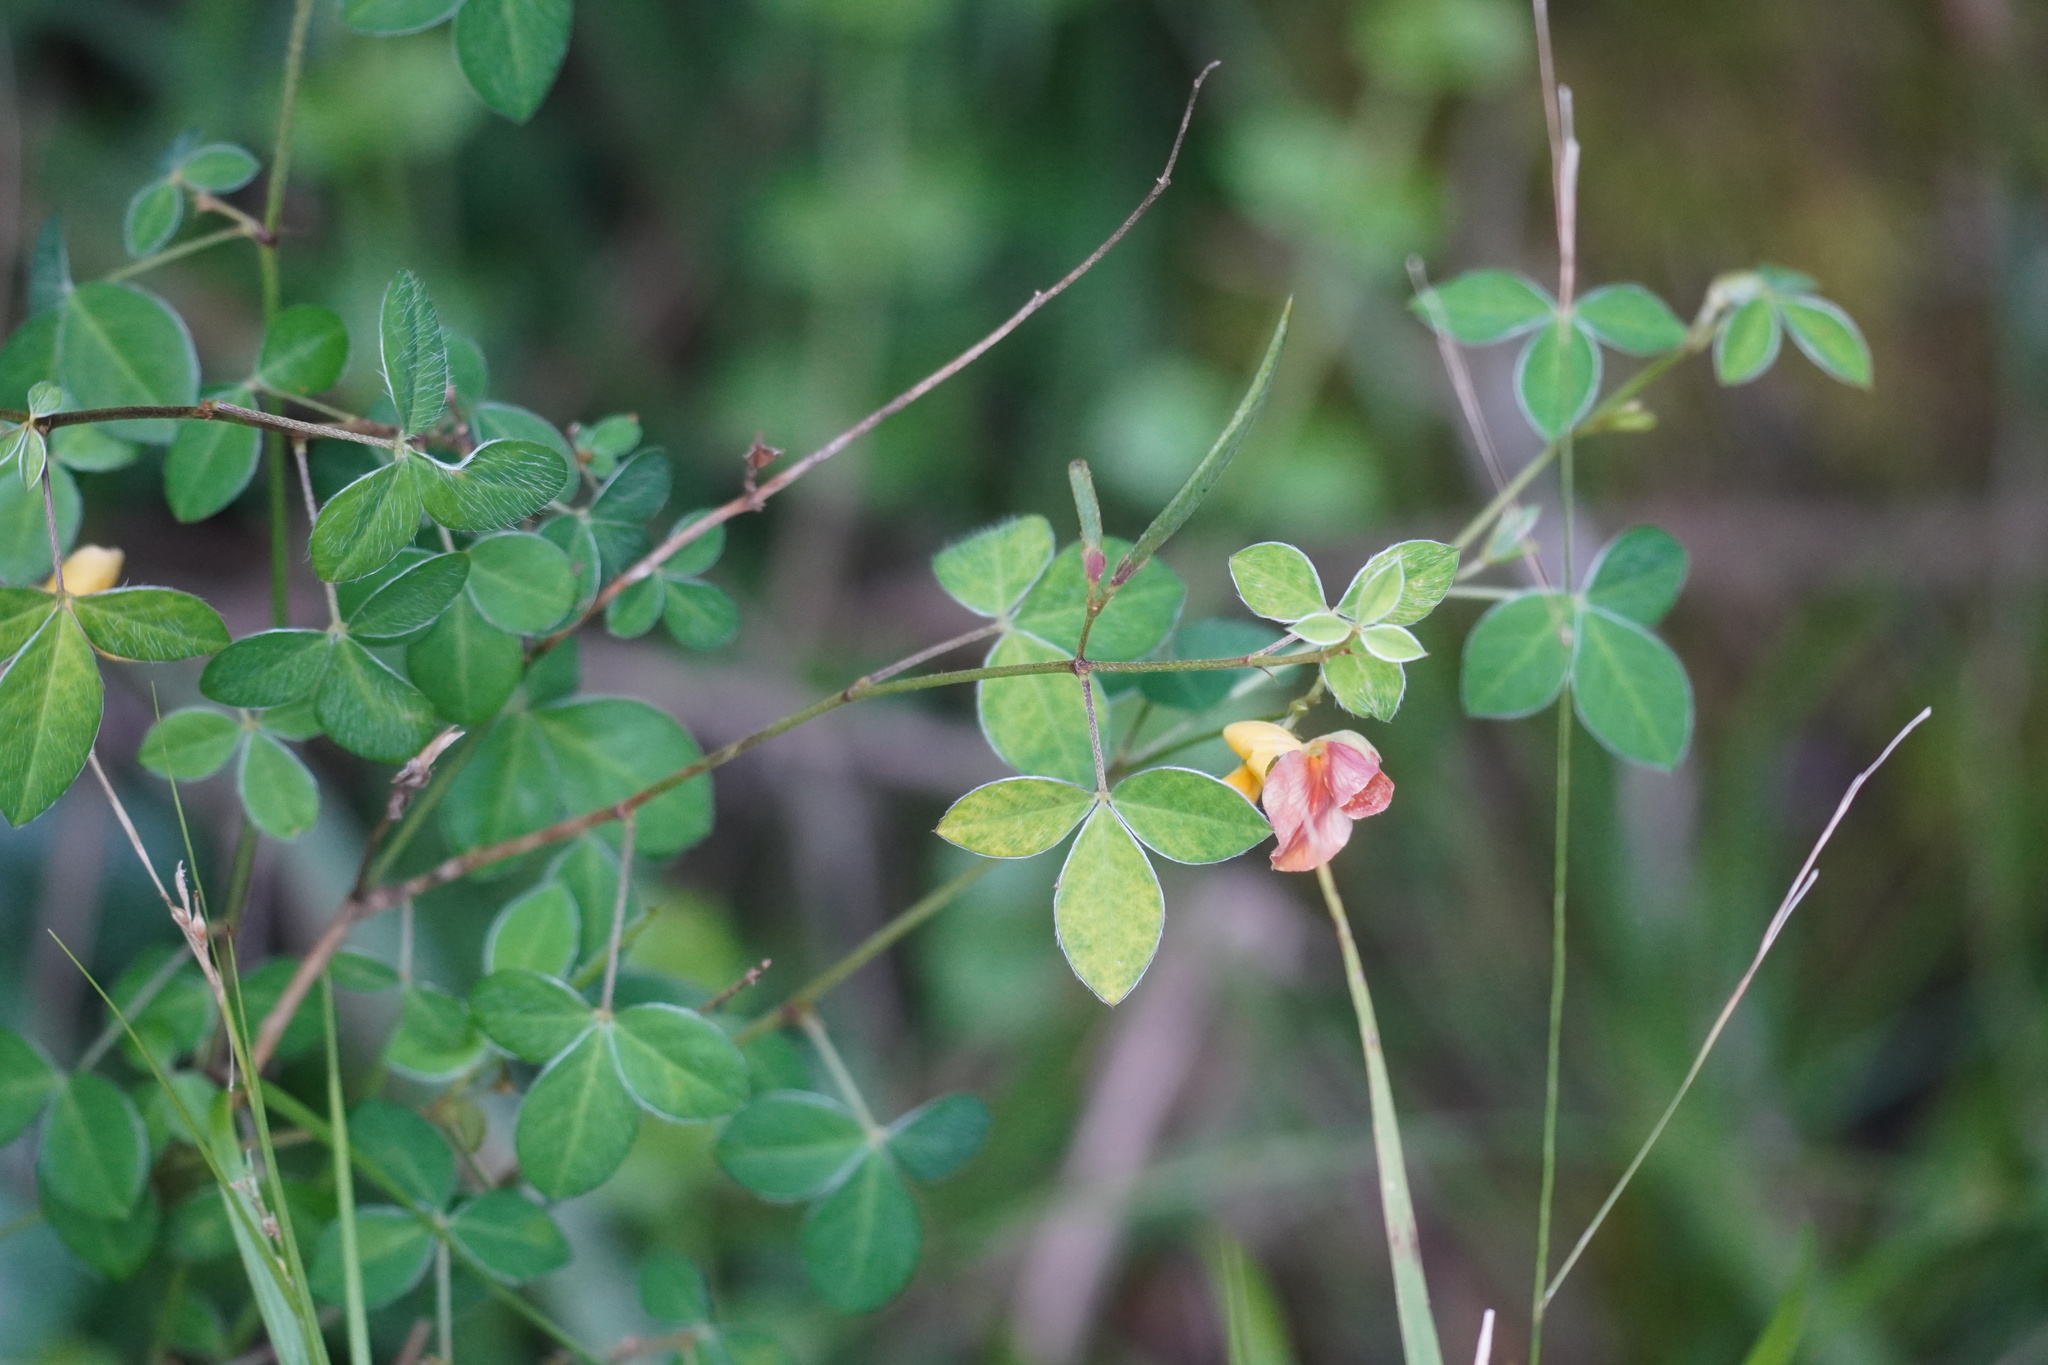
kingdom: Plantae
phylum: Tracheophyta
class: Magnoliopsida
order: Fabales
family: Fabaceae
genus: Argyrolobium
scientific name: Argyrolobium tomentosum
